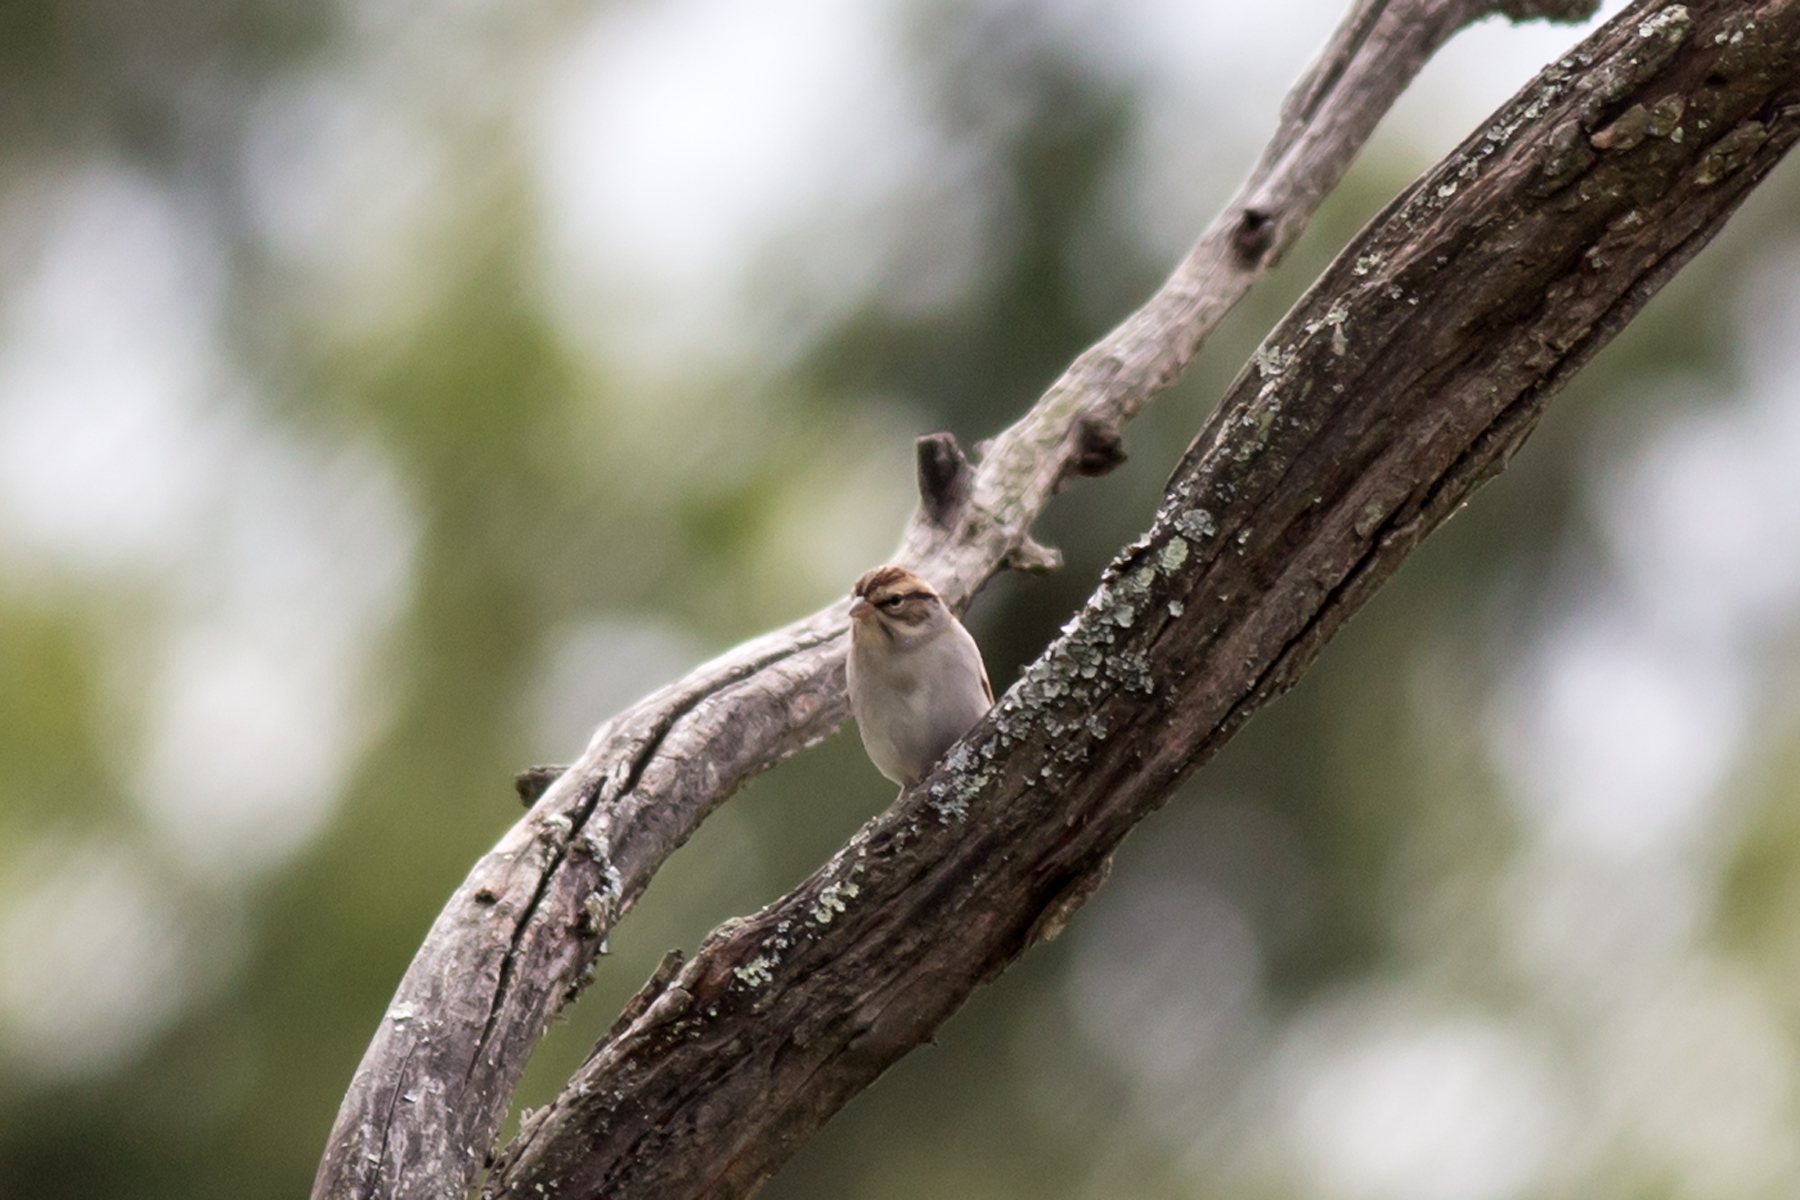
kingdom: Animalia
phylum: Chordata
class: Aves
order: Passeriformes
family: Passerellidae
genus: Spizella
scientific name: Spizella passerina
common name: Chipping sparrow
